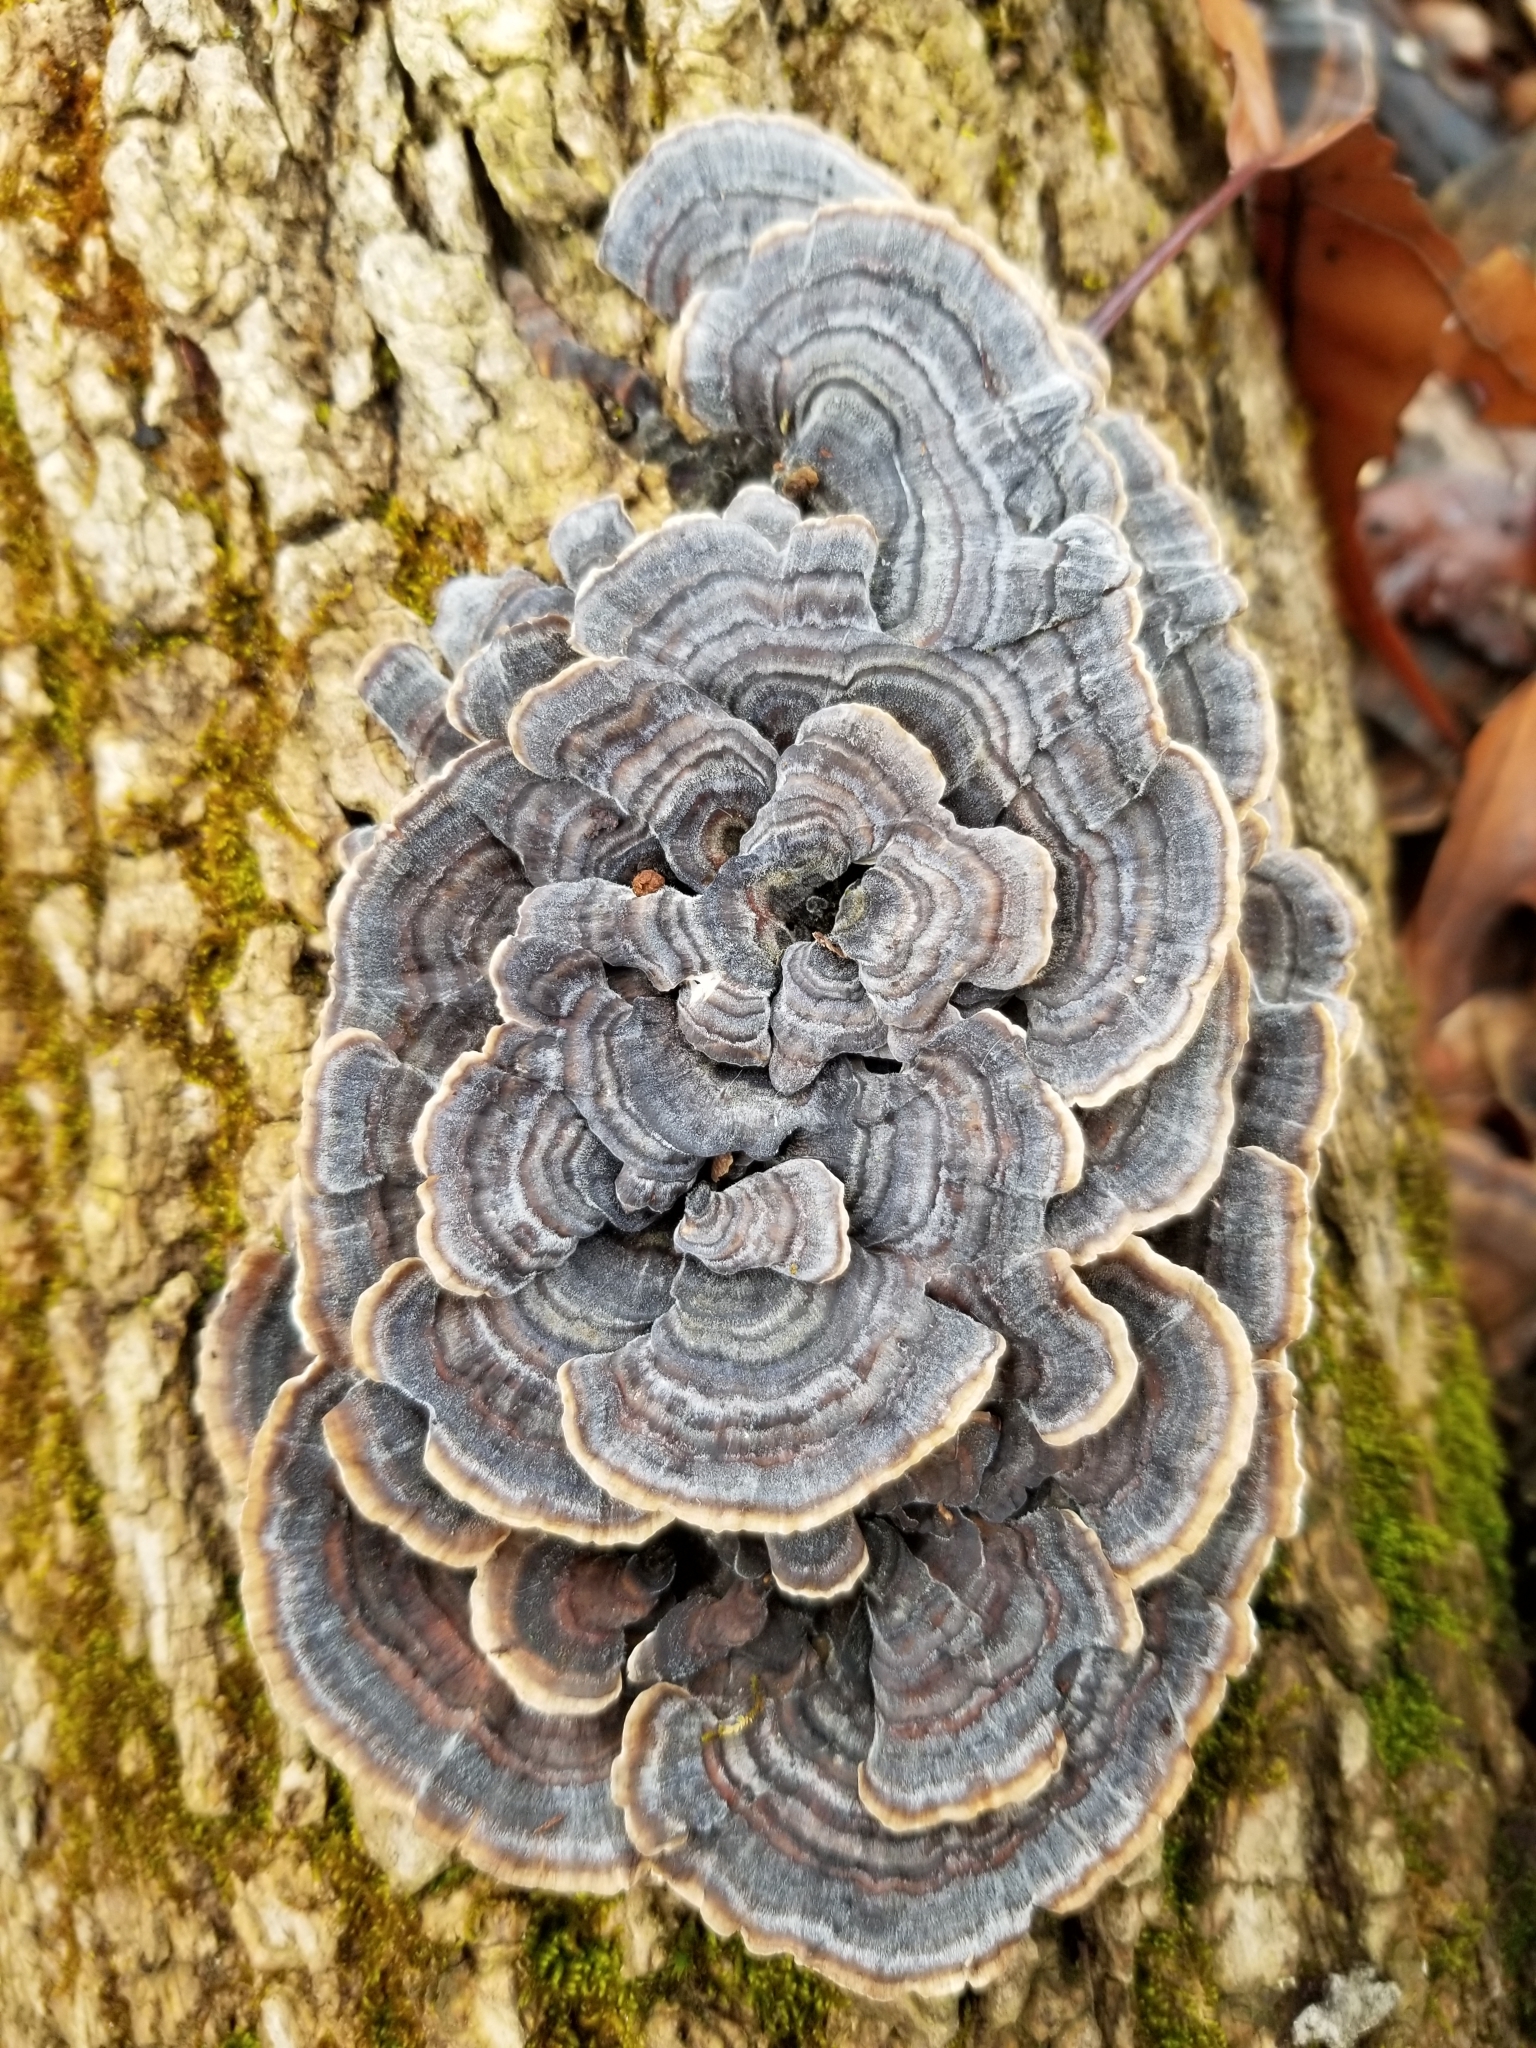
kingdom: Fungi
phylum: Basidiomycota
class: Agaricomycetes
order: Polyporales
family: Polyporaceae
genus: Trametes
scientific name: Trametes versicolor
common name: Turkeytail
